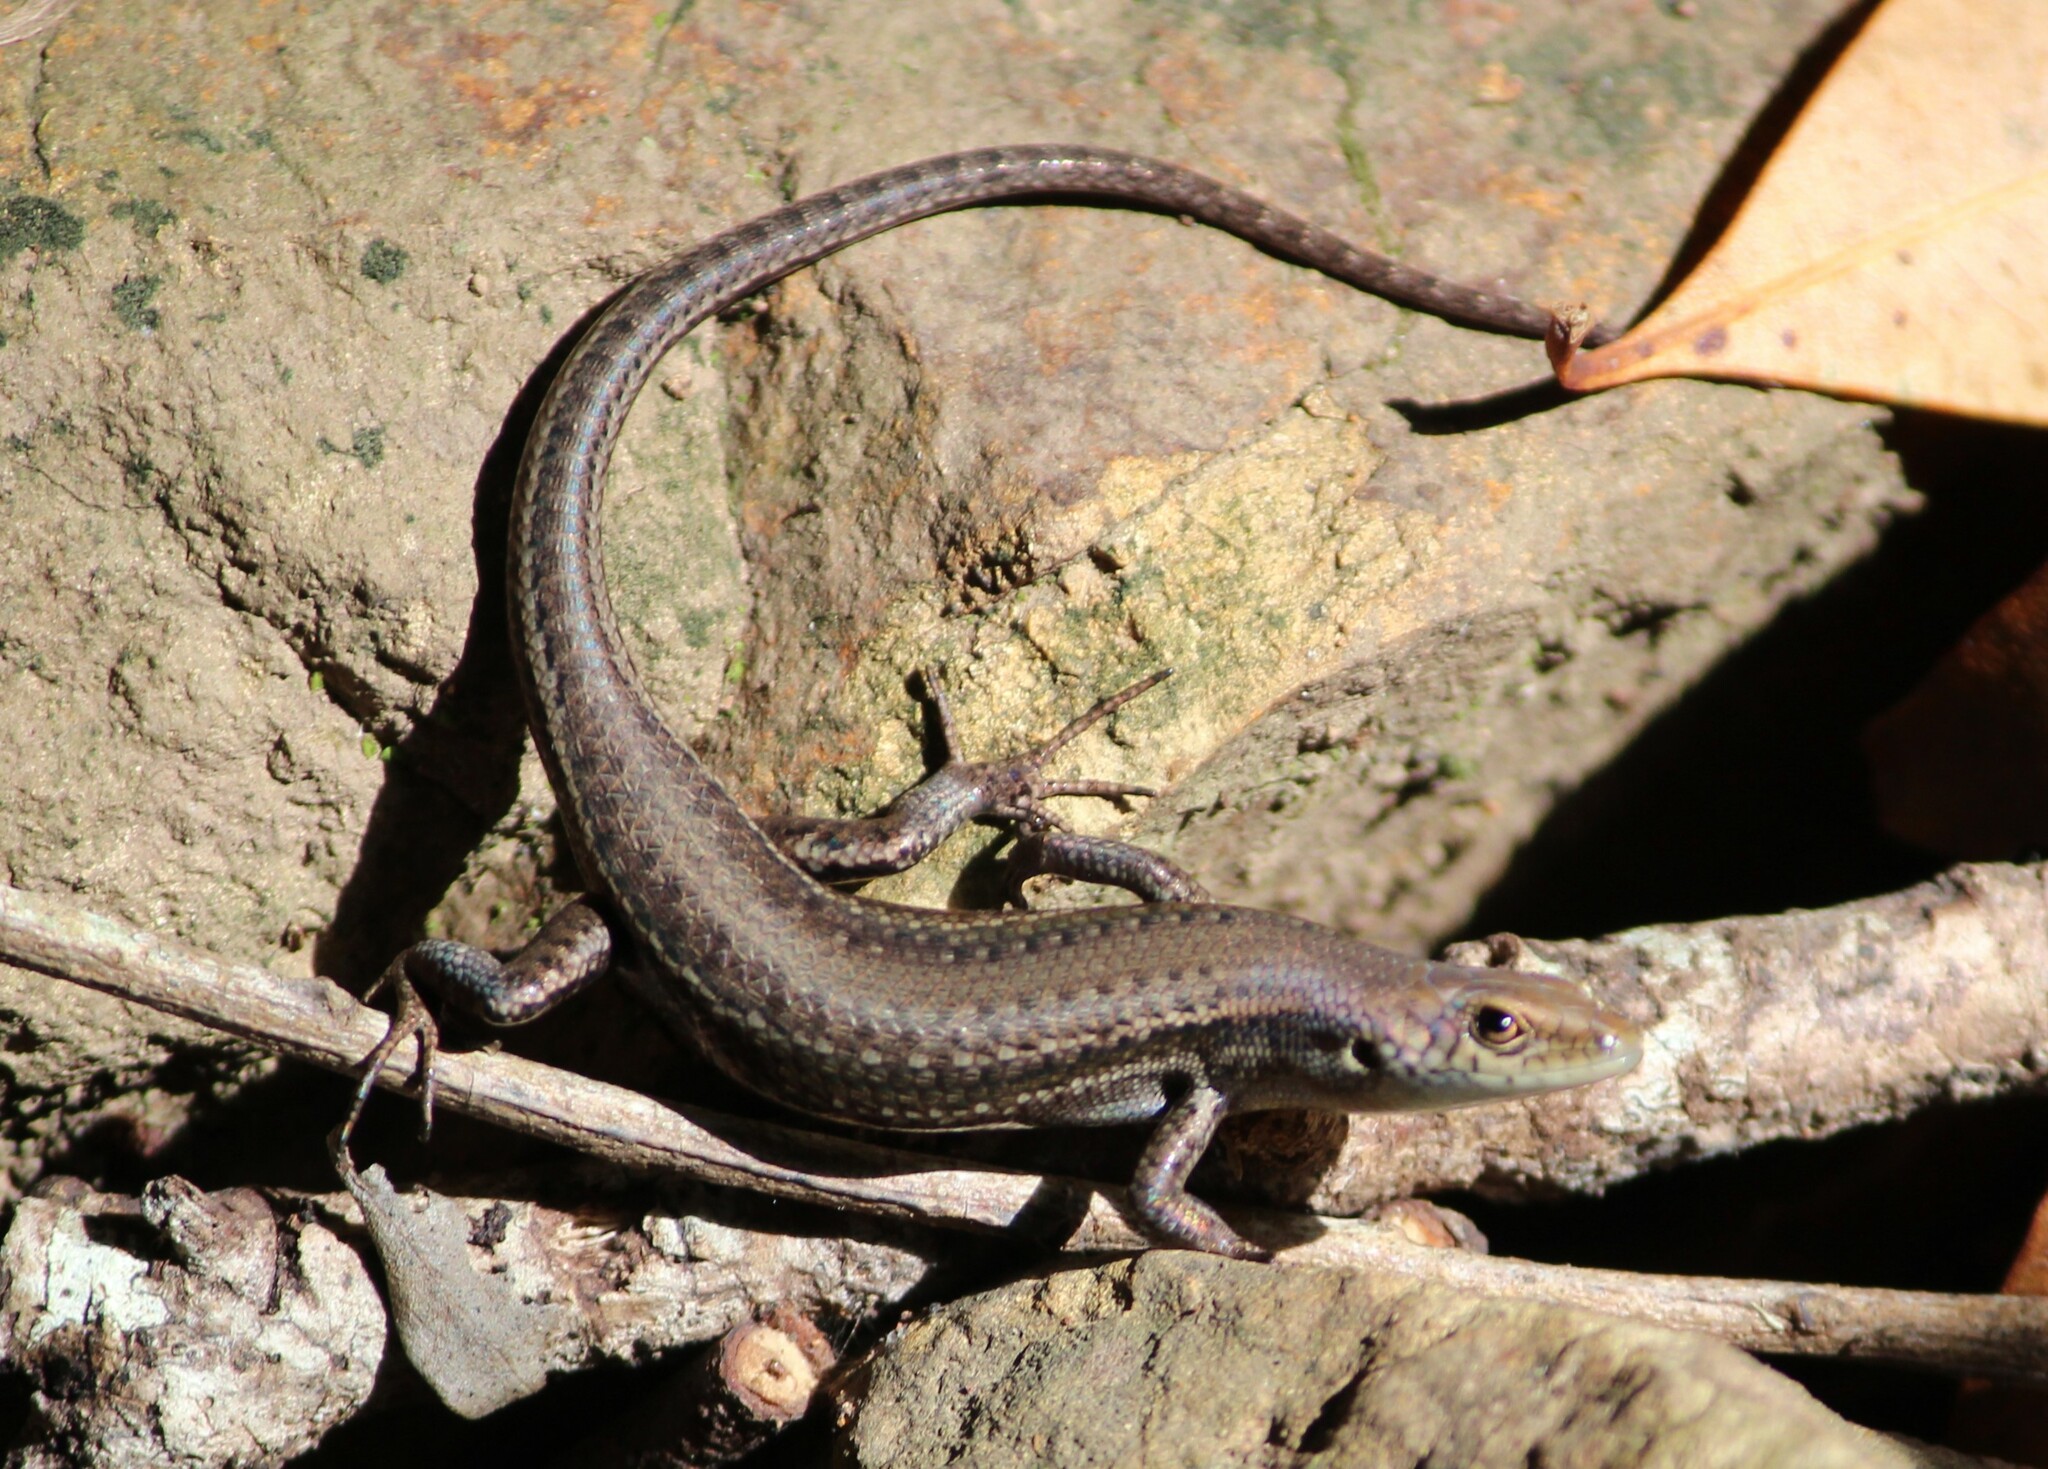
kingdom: Animalia
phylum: Chordata
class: Squamata
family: Scincidae
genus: Carlia
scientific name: Carlia rhomboidalis
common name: Blue-throated rainbow-skink
